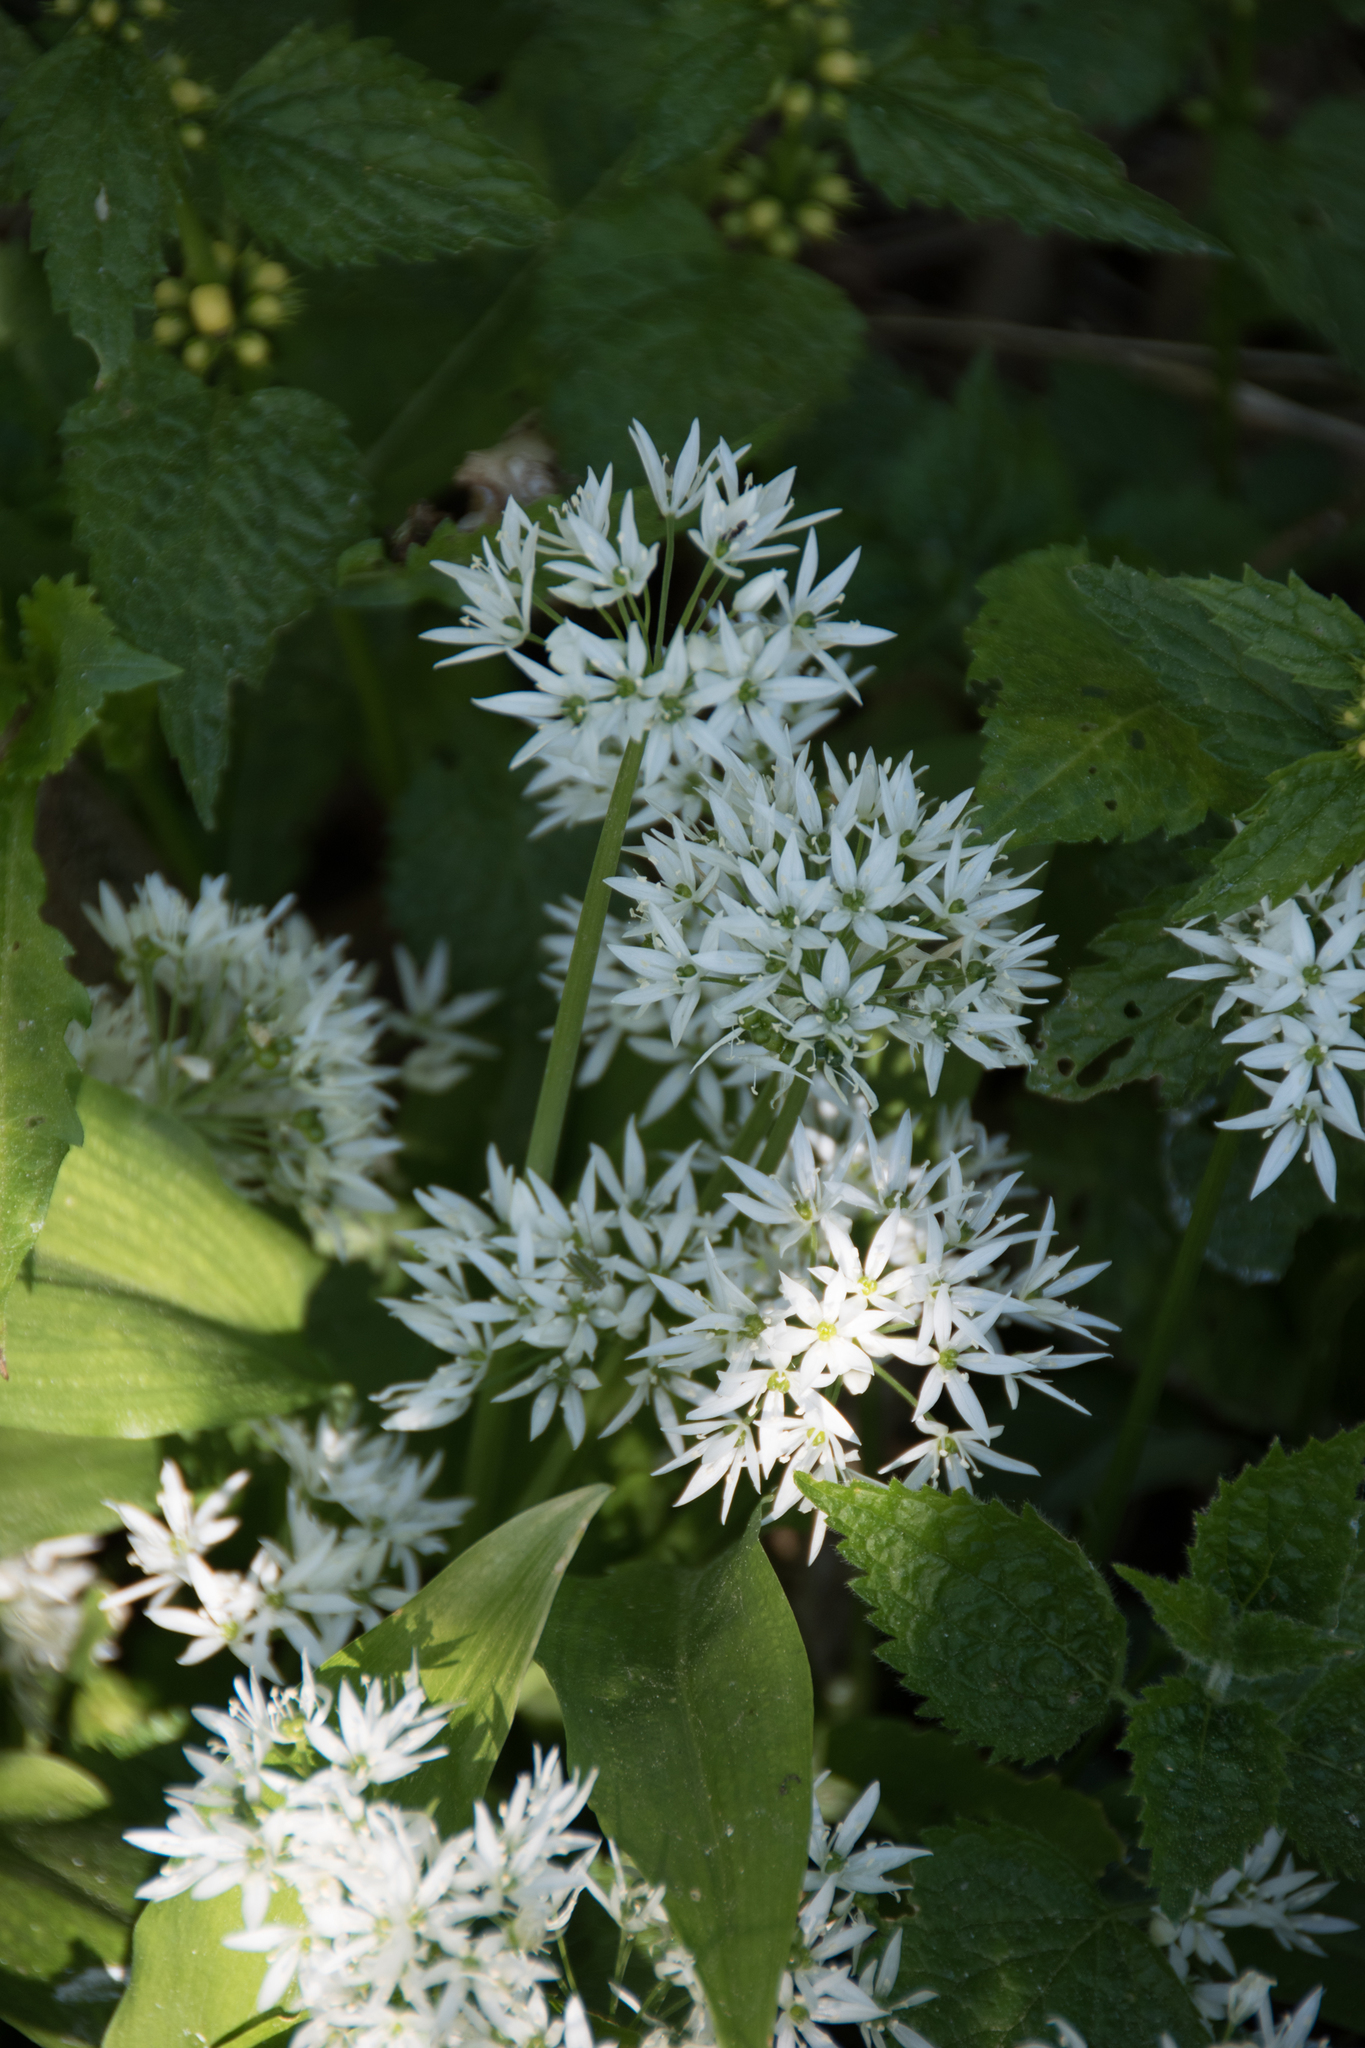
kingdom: Plantae
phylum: Tracheophyta
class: Liliopsida
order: Asparagales
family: Amaryllidaceae
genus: Allium
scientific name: Allium ursinum
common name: Ramsons
